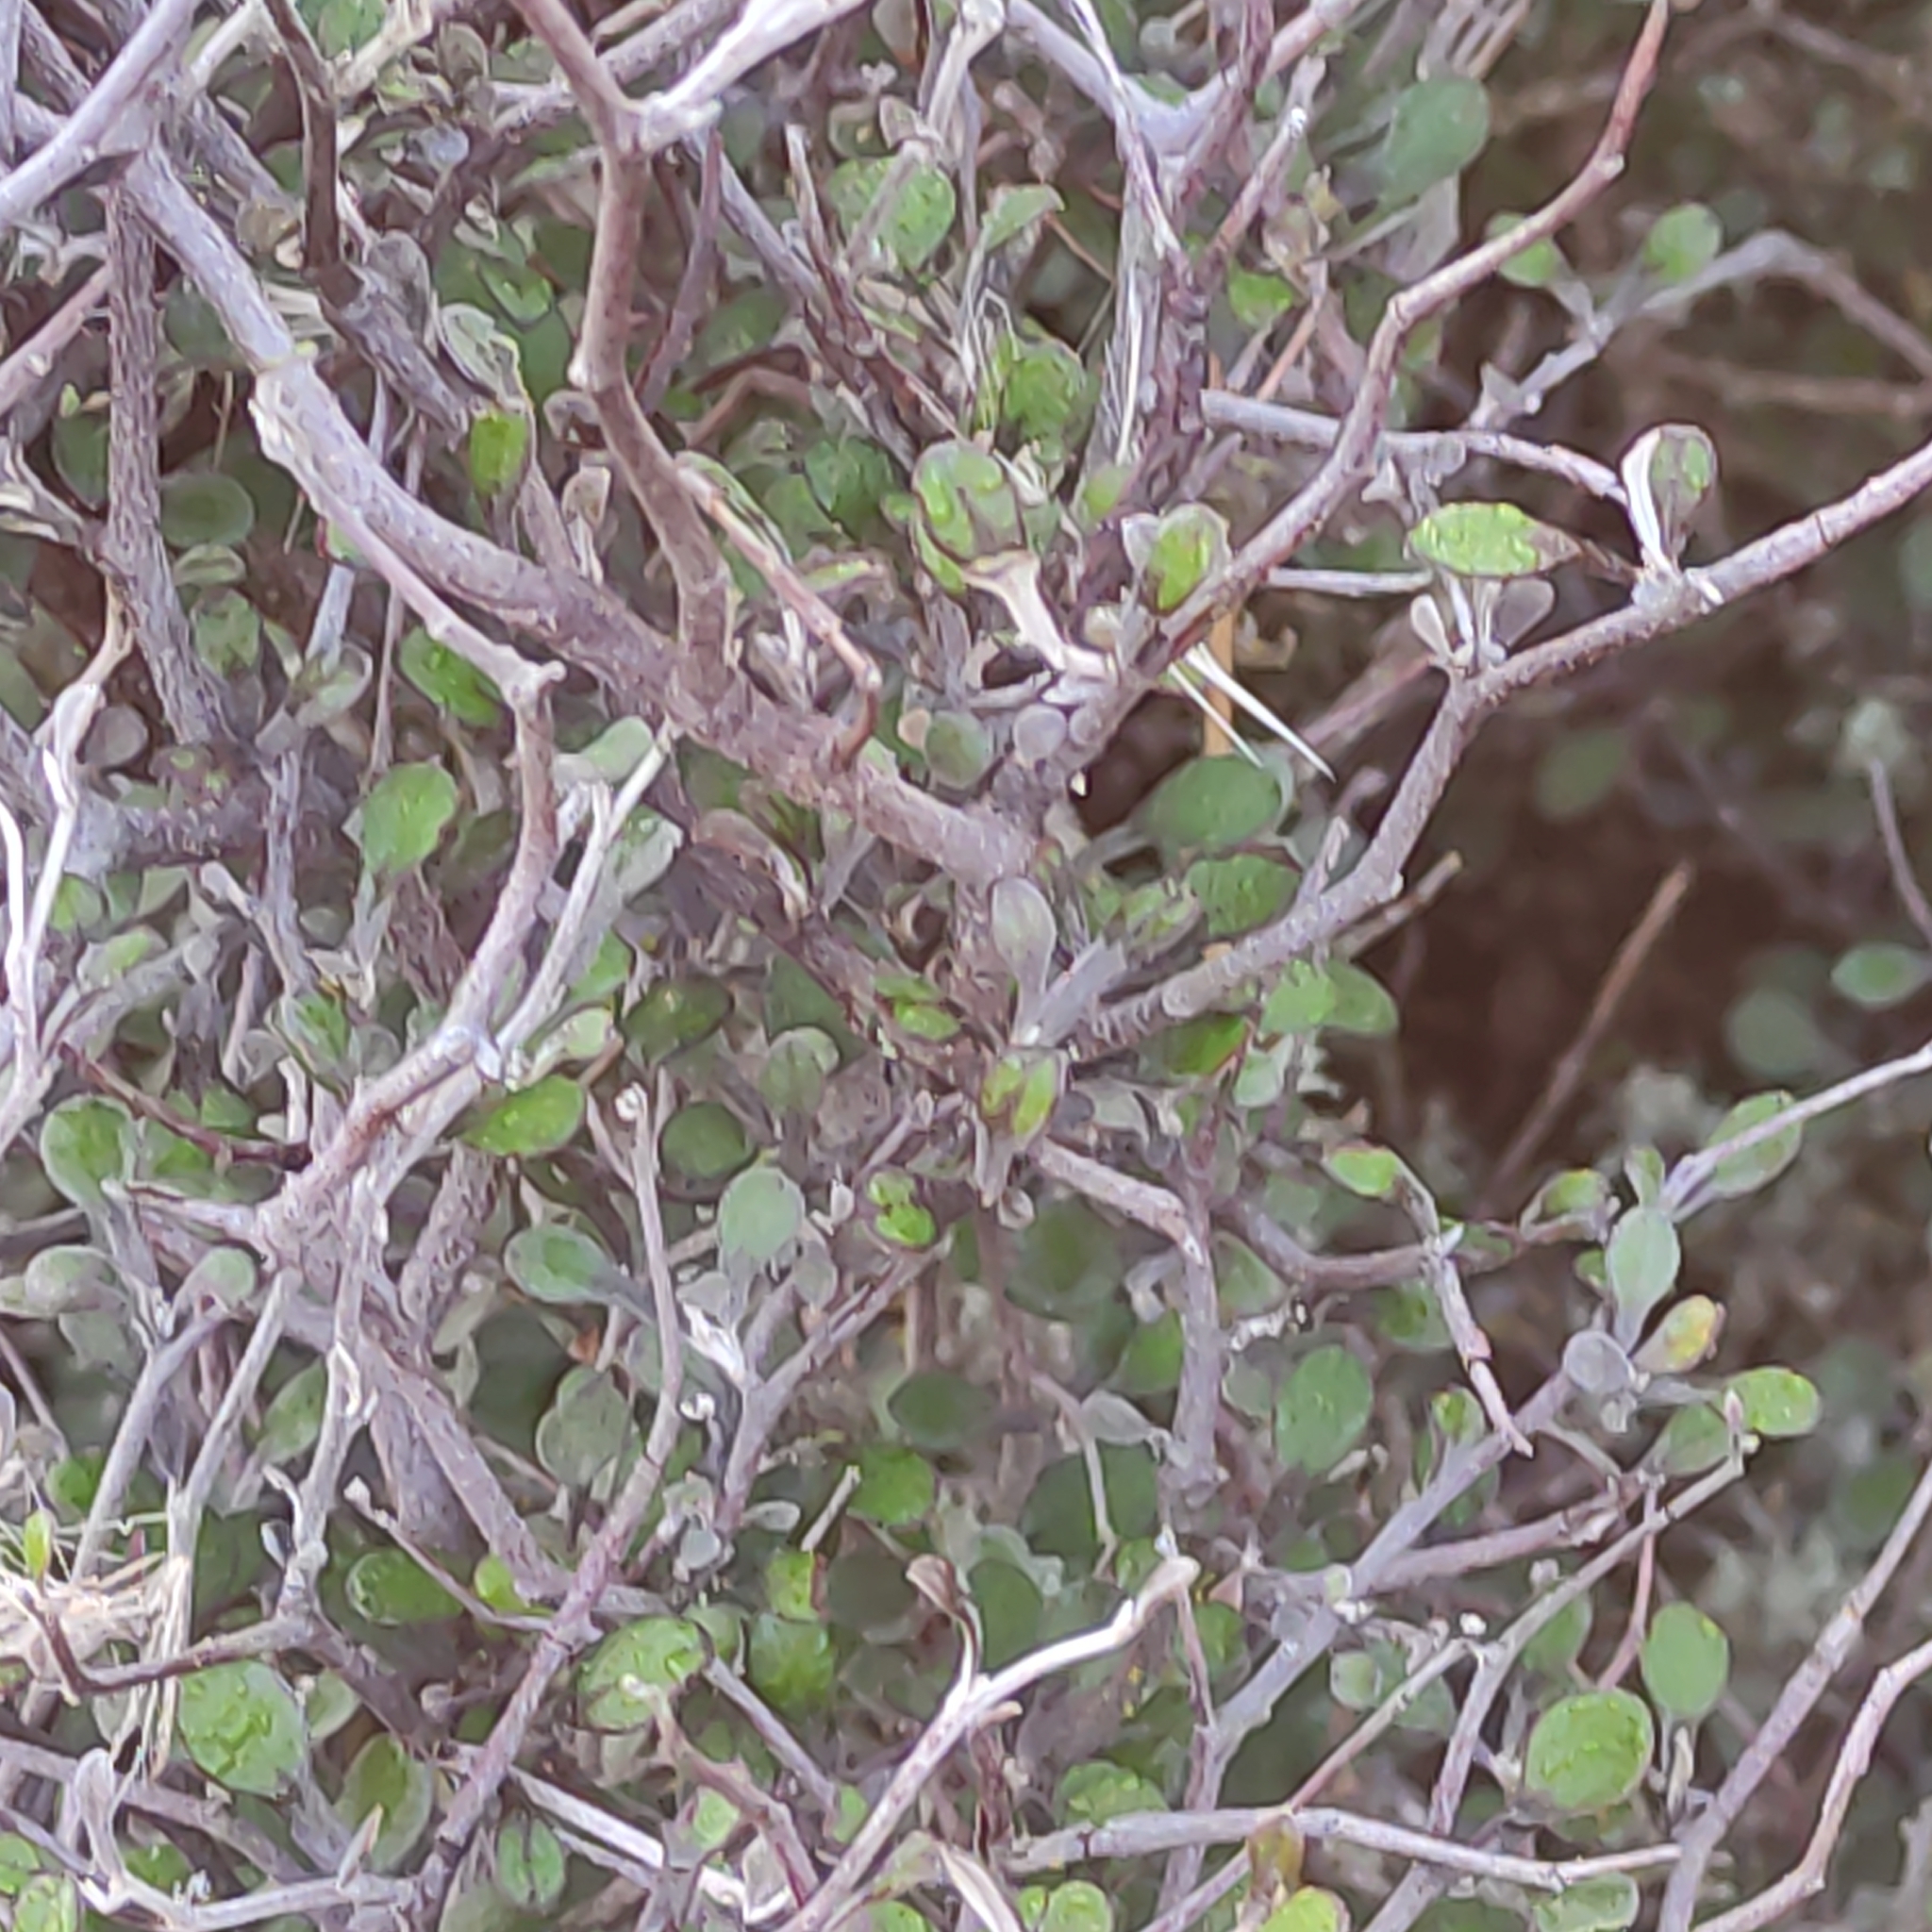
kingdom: Plantae
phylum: Tracheophyta
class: Magnoliopsida
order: Asterales
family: Argophyllaceae
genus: Corokia
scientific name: Corokia cotoneaster
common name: Wire nettingbush
